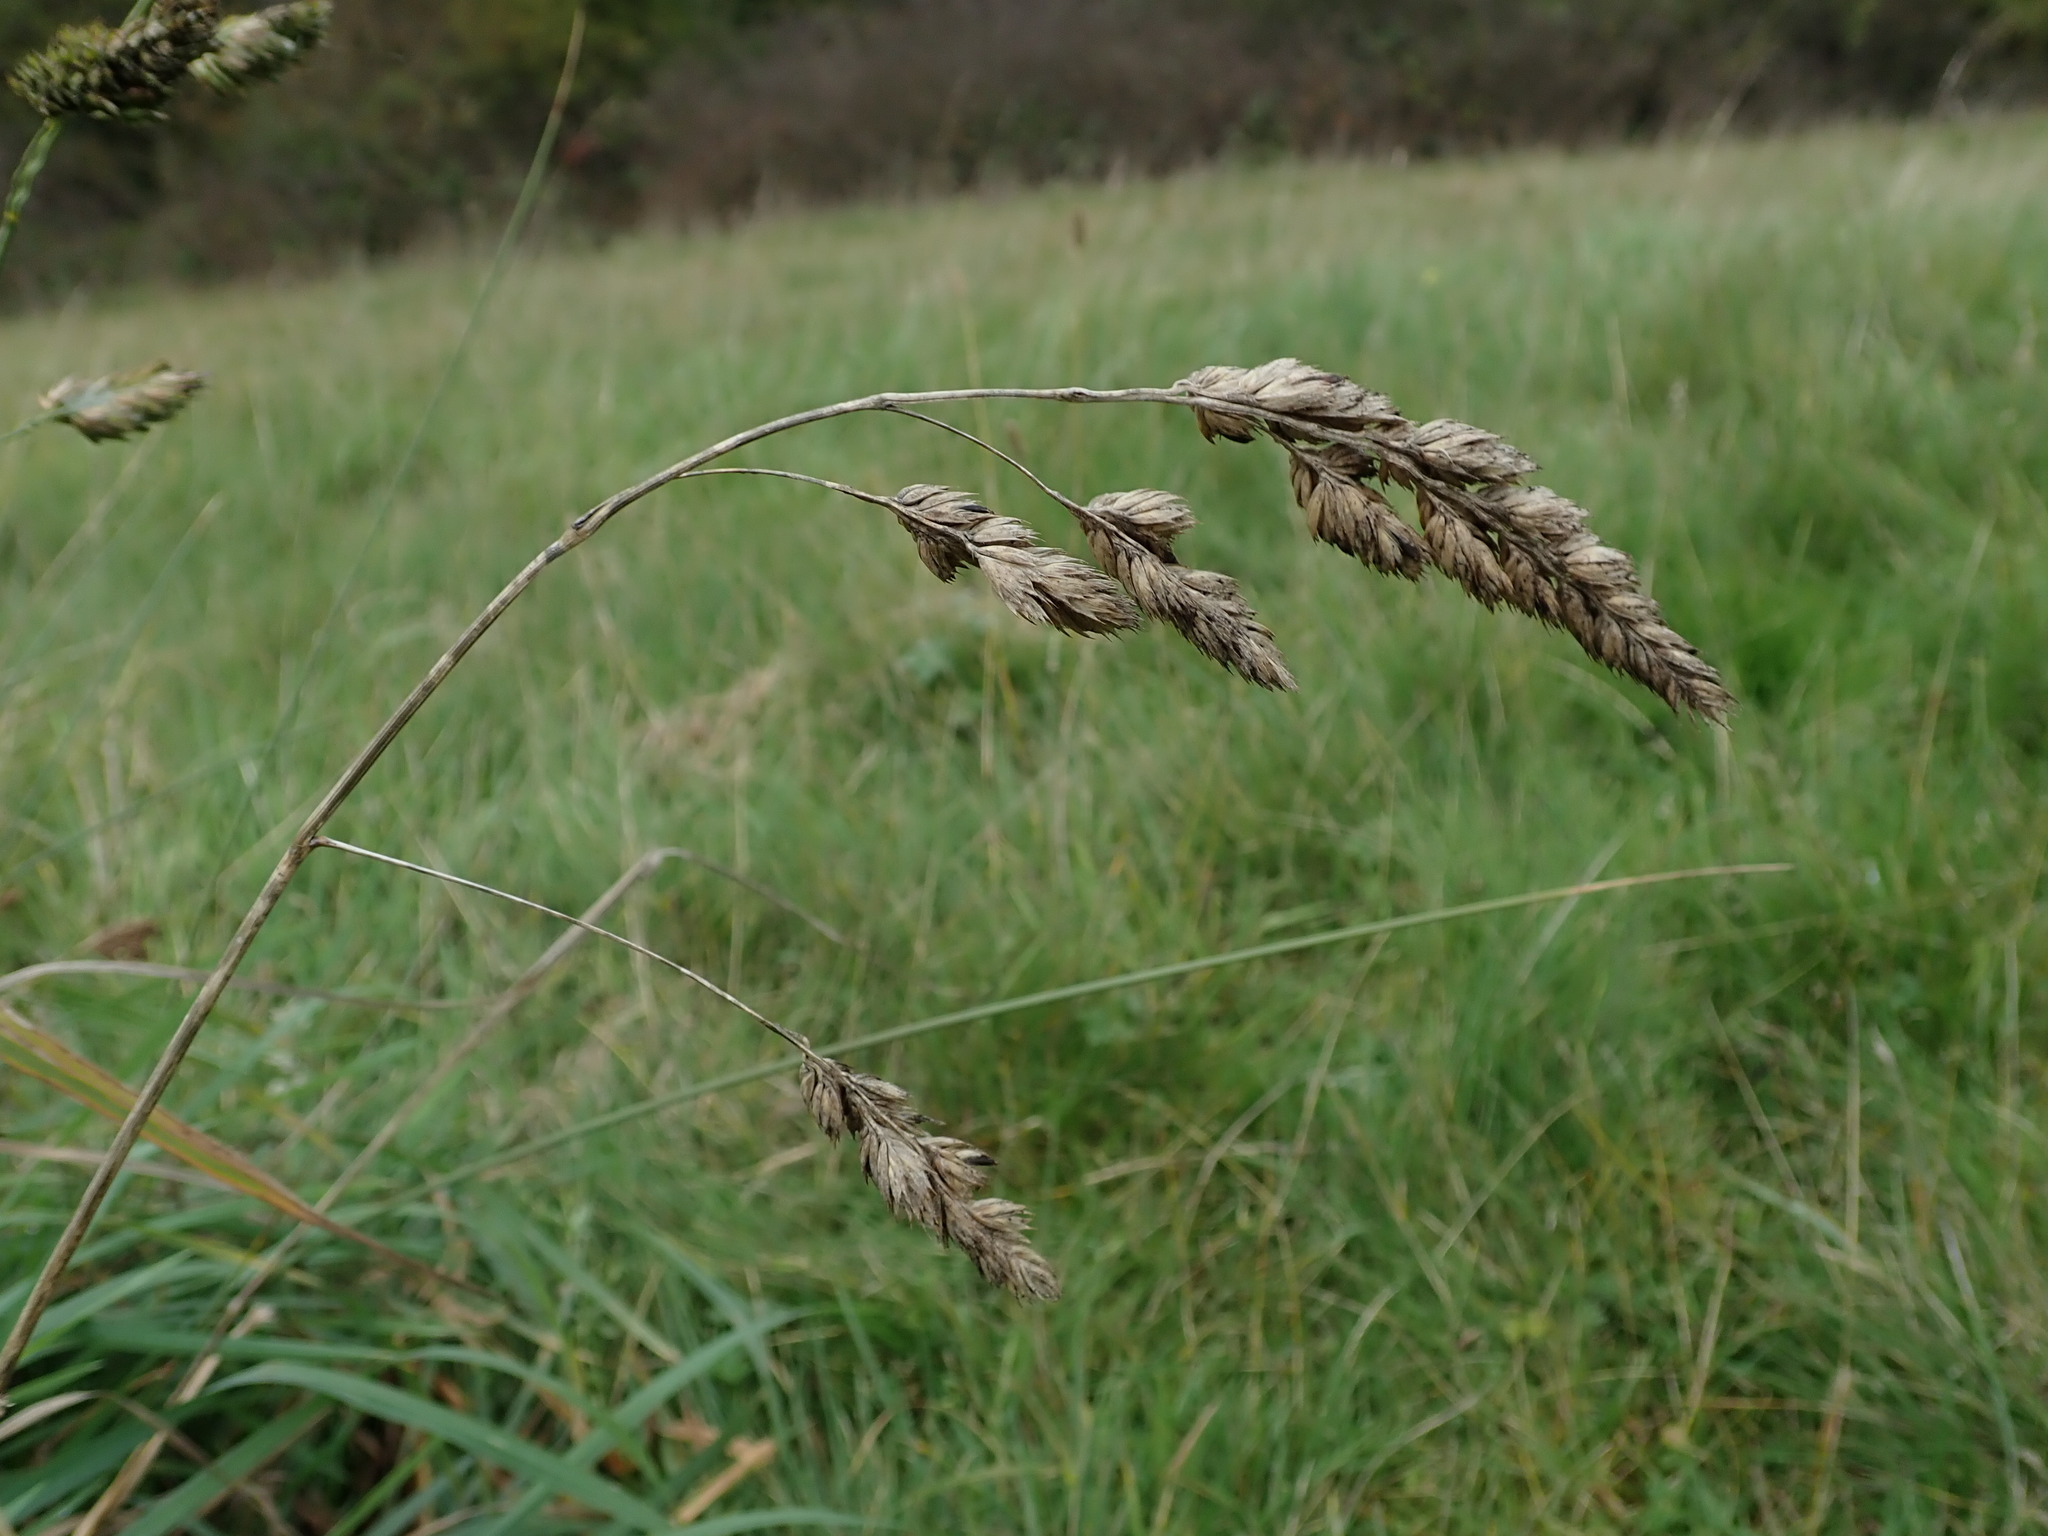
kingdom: Plantae
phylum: Tracheophyta
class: Liliopsida
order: Poales
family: Poaceae
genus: Dactylis
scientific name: Dactylis glomerata
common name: Orchardgrass
